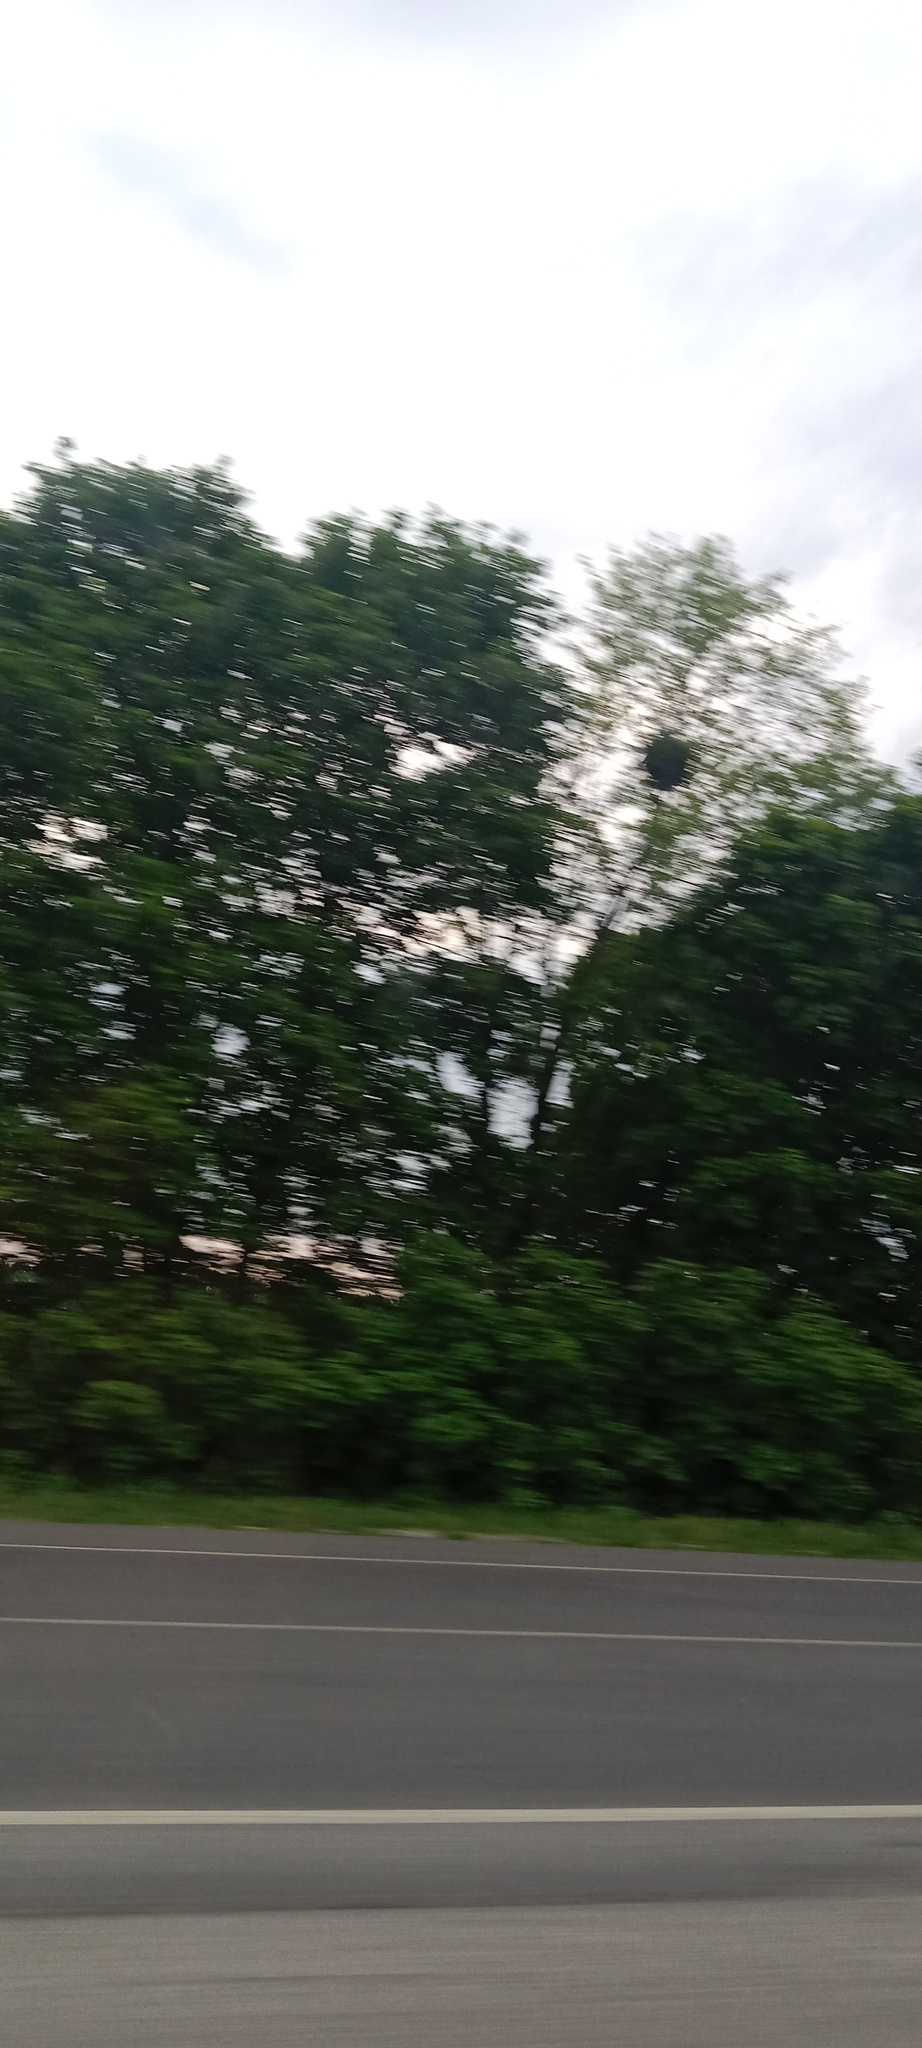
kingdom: Plantae
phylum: Tracheophyta
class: Magnoliopsida
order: Santalales
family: Viscaceae
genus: Viscum
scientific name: Viscum album
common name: Mistletoe
